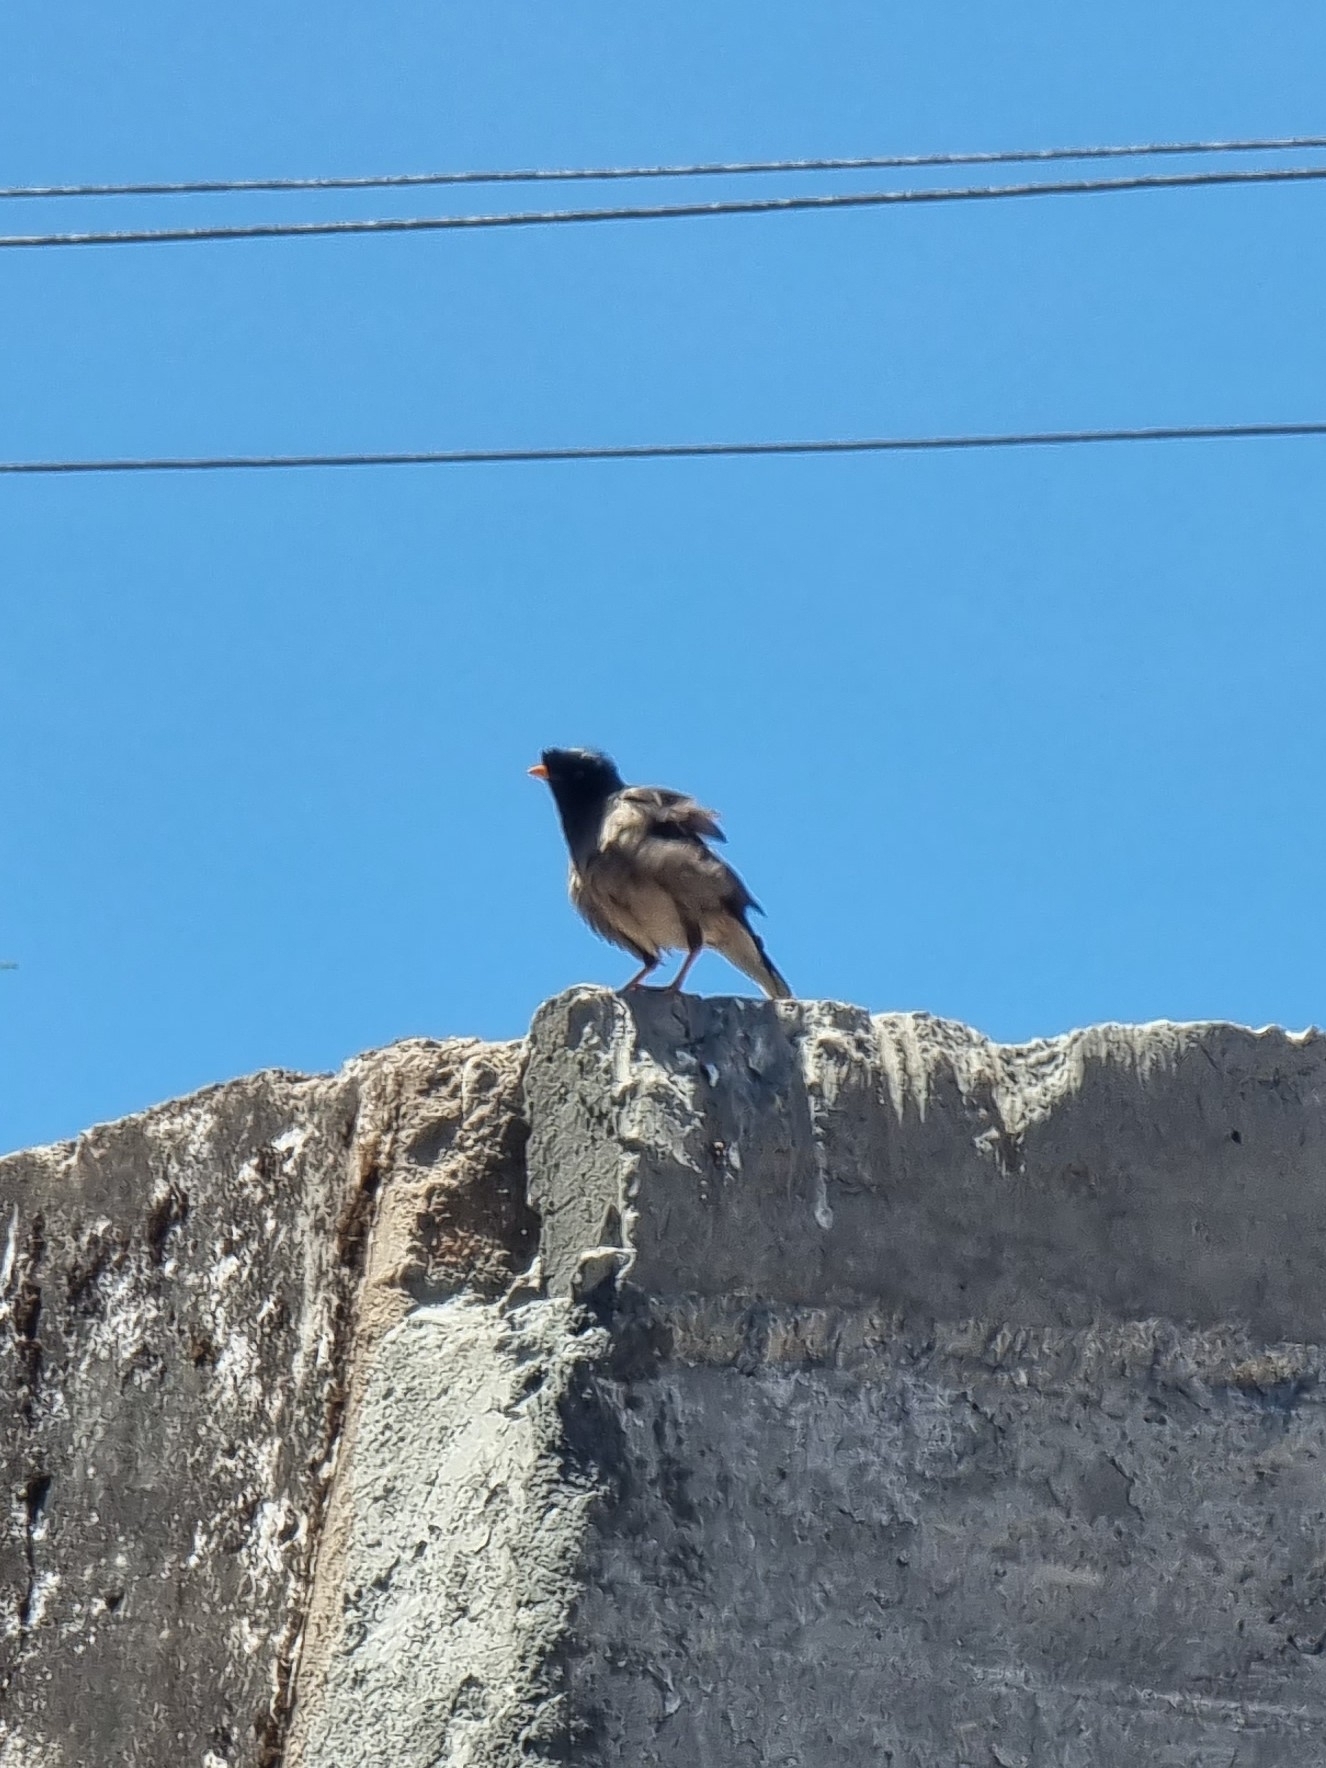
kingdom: Animalia
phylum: Chordata
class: Aves
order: Passeriformes
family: Sturnidae
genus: Acridotheres
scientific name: Acridotheres tristis
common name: Common myna
